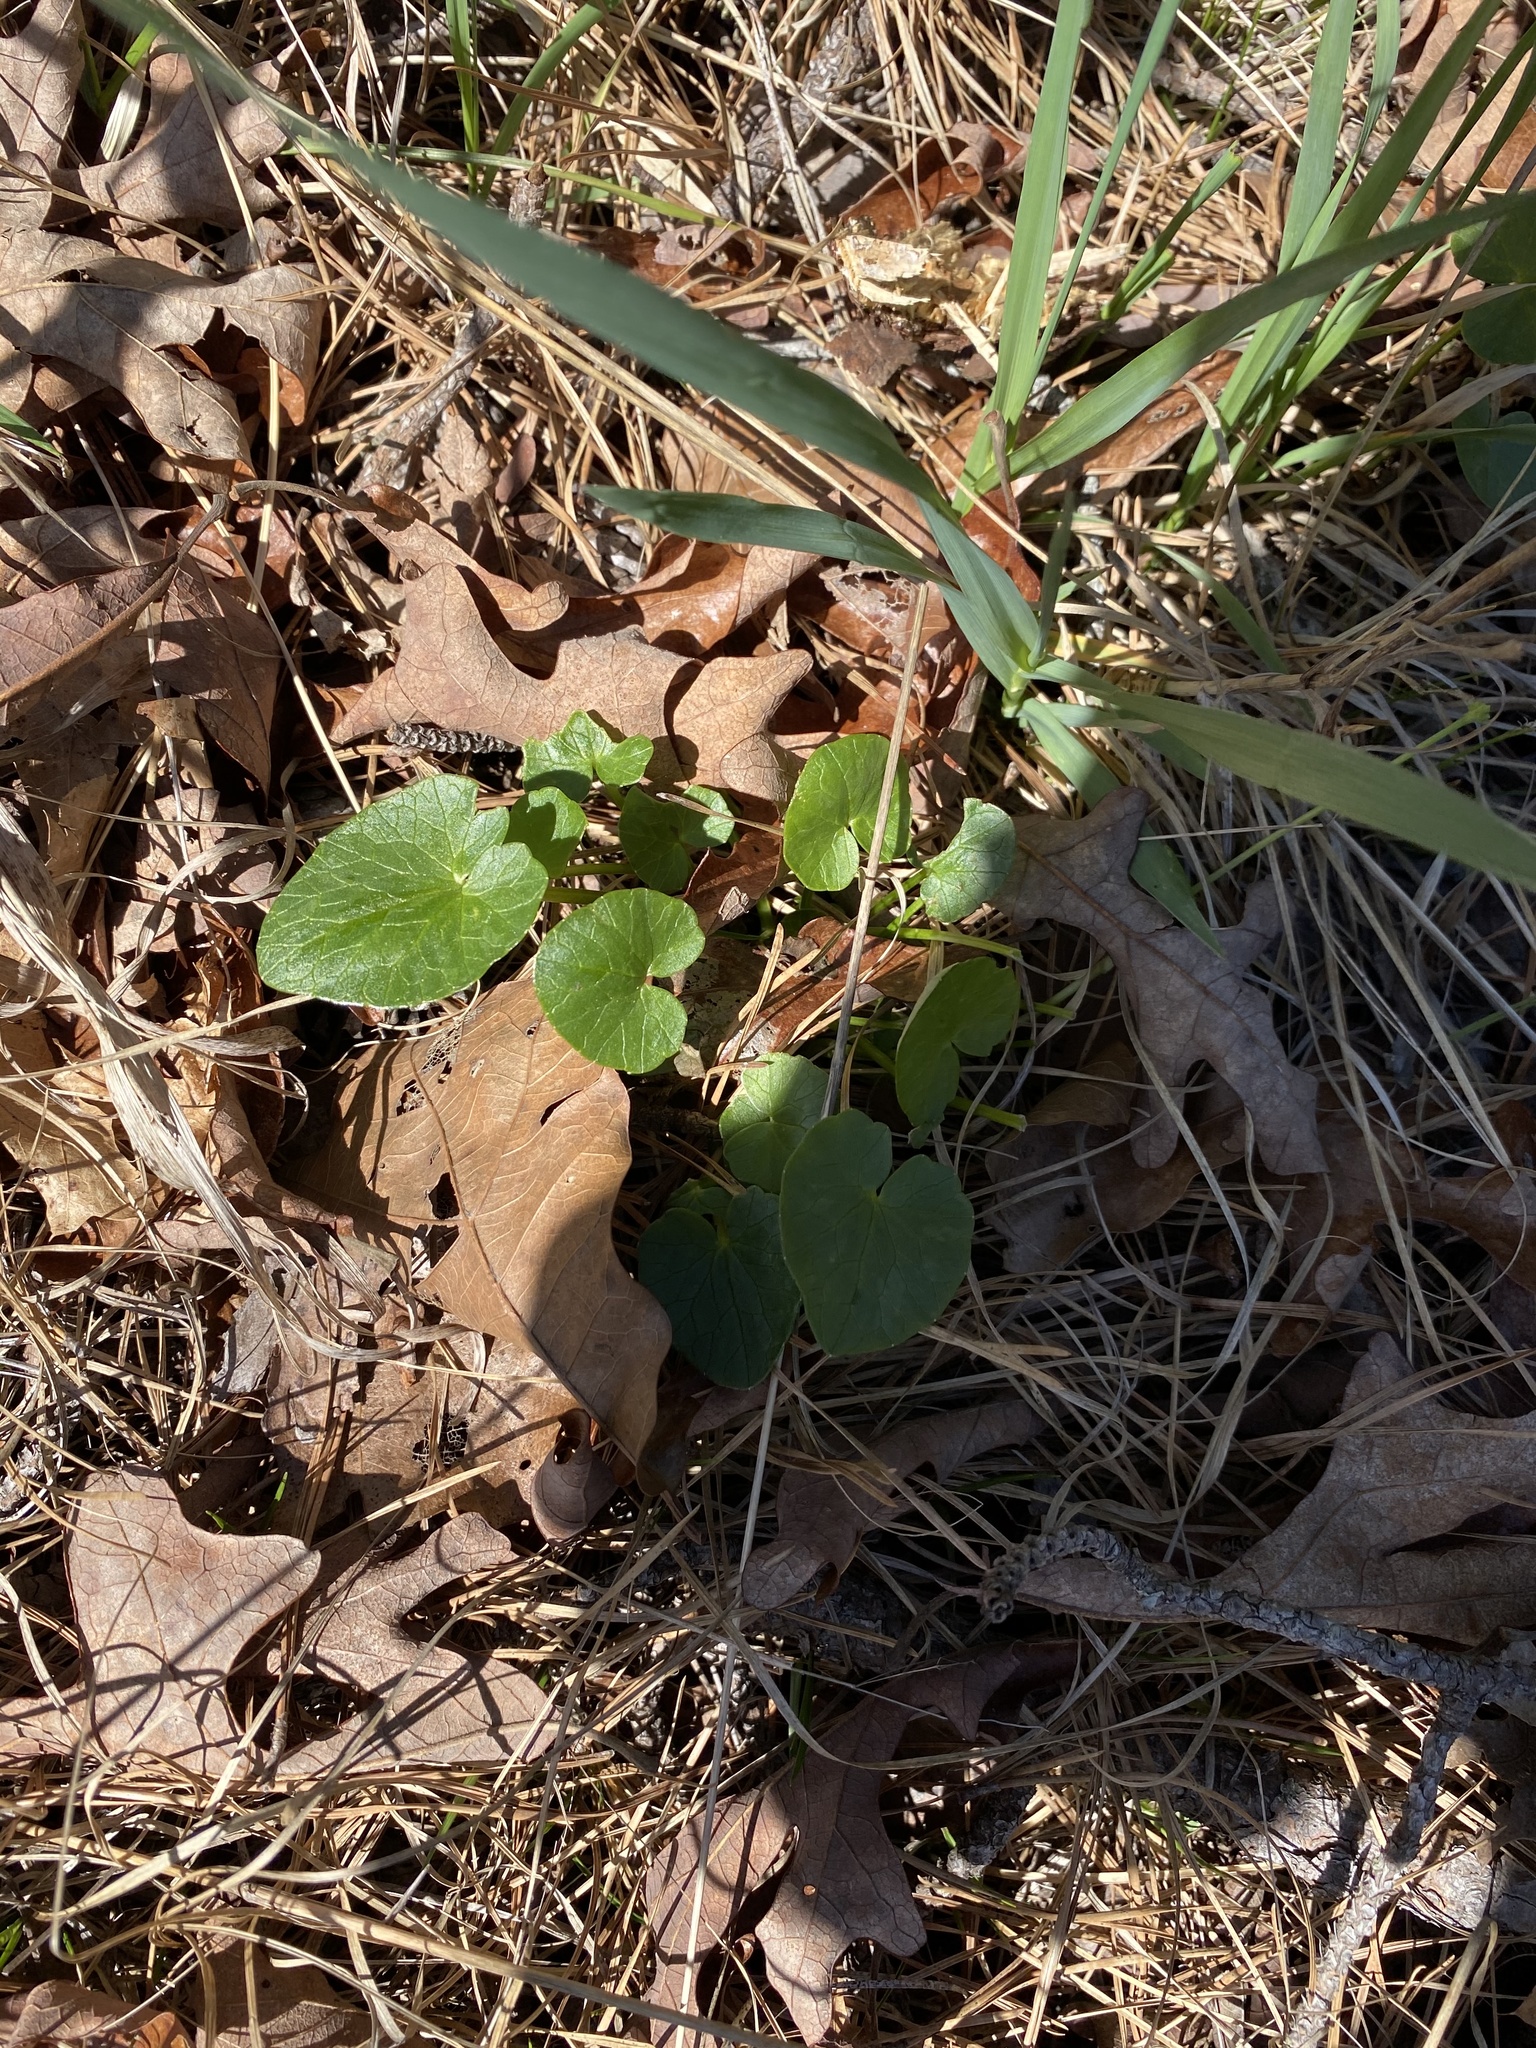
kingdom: Plantae
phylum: Tracheophyta
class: Magnoliopsida
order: Ranunculales
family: Ranunculaceae
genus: Ficaria
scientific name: Ficaria verna
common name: Lesser celandine
